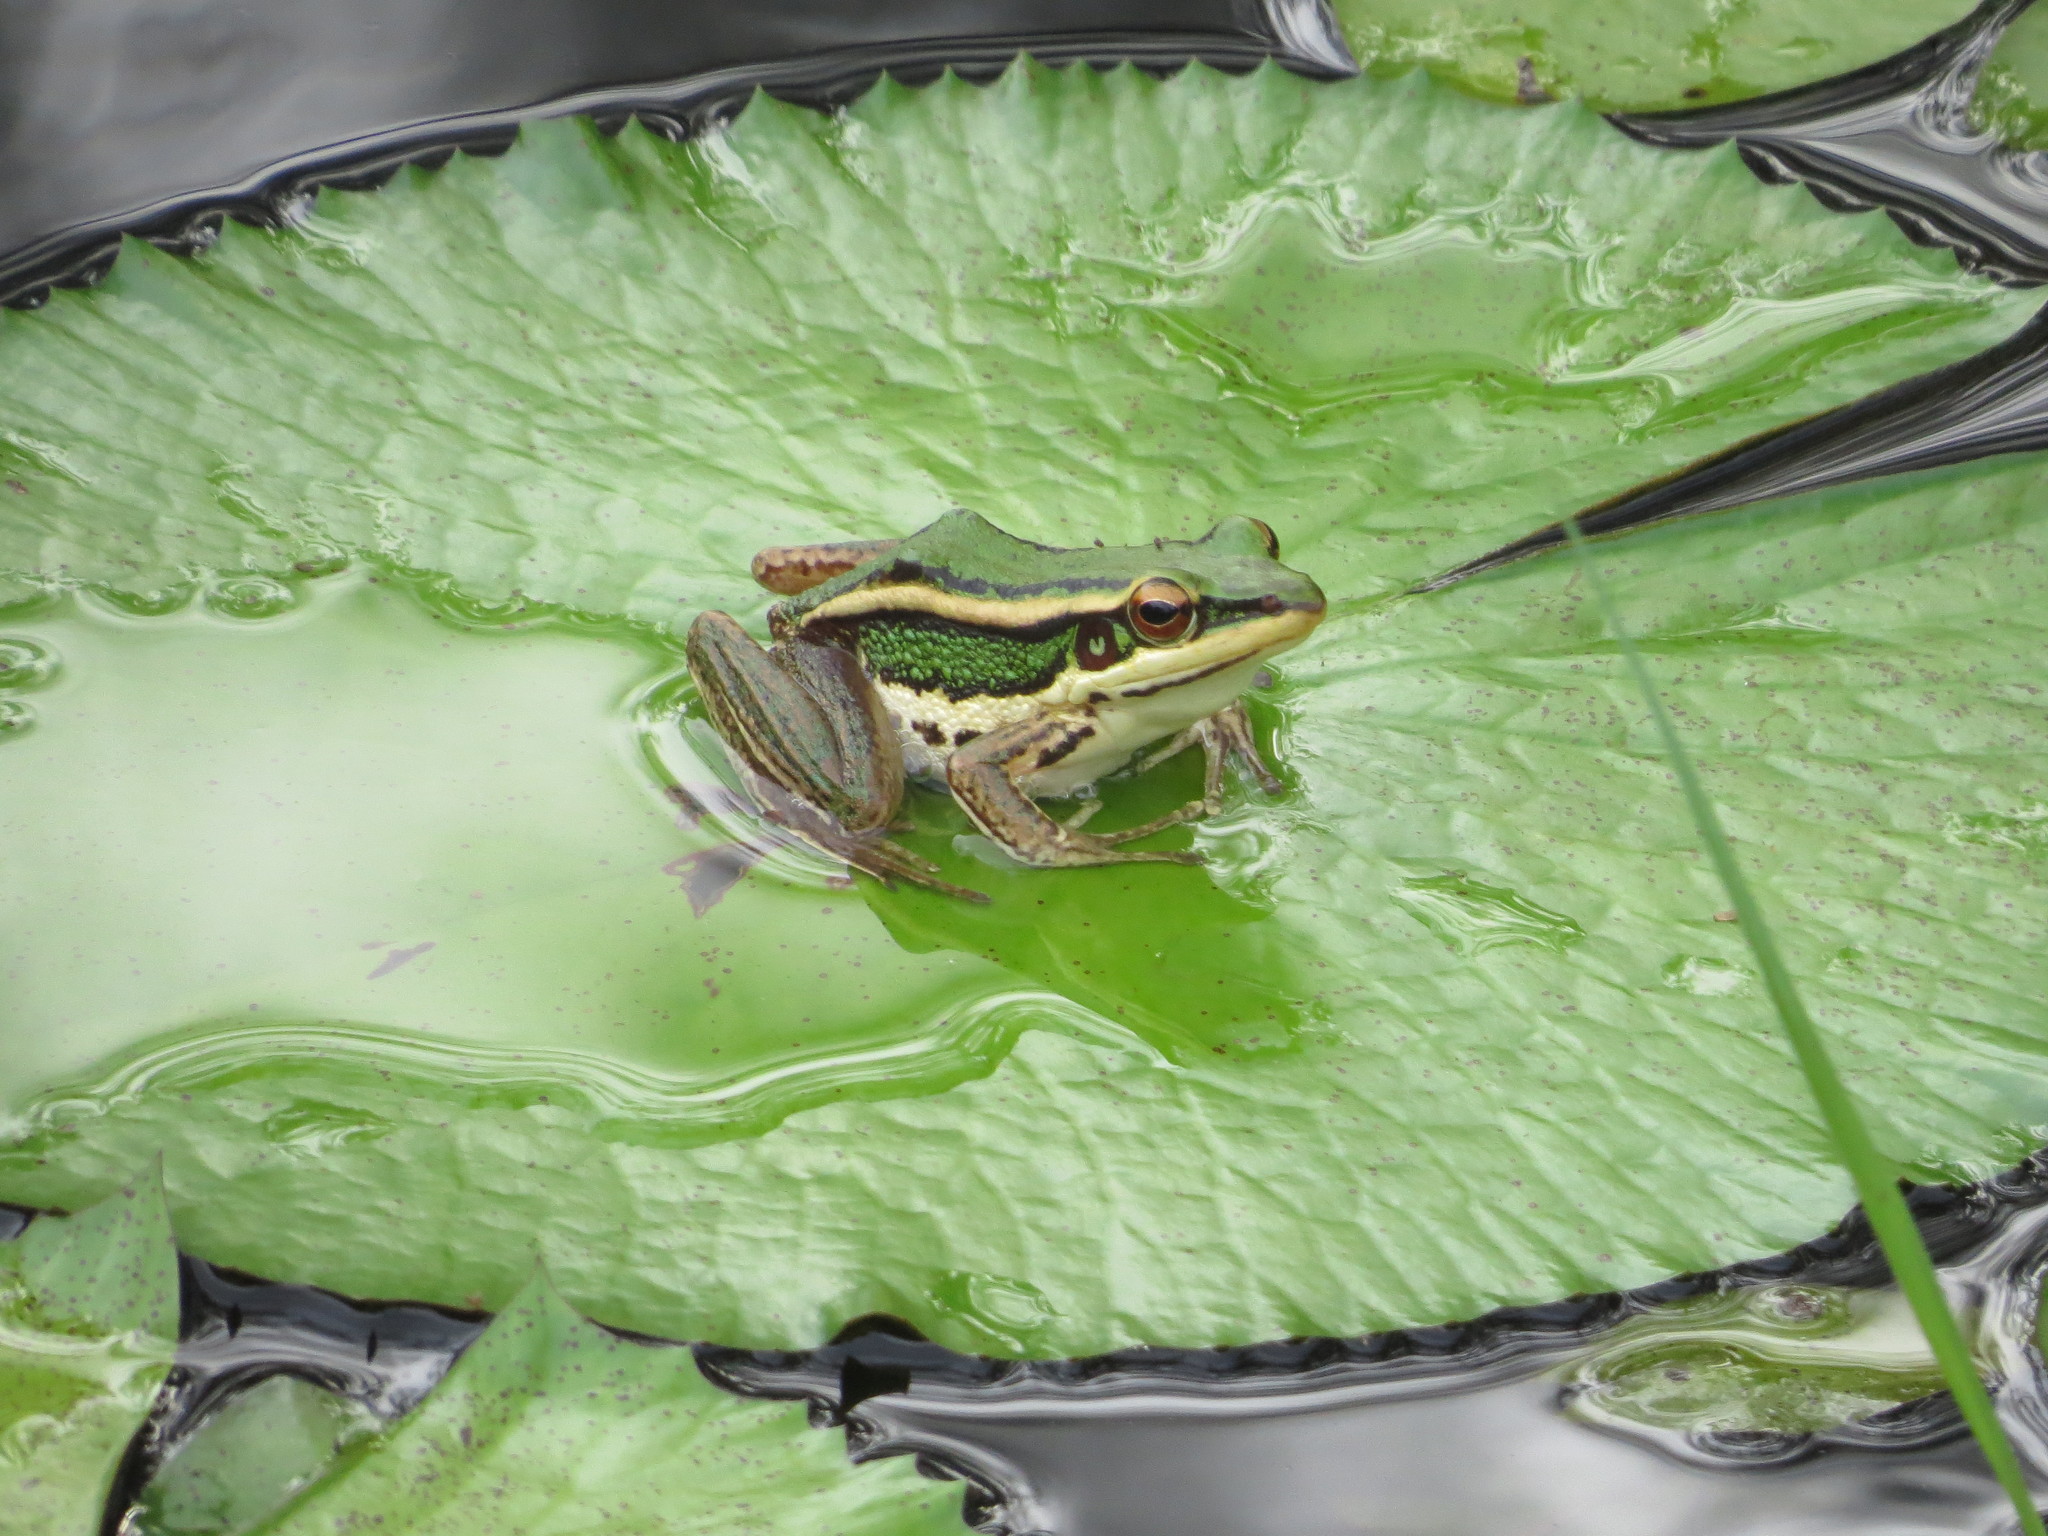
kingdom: Animalia
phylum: Chordata
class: Amphibia
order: Anura
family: Ranidae
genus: Hylarana
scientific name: Hylarana erythraea
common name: Common green frog/green paddy frog/leaf frog
